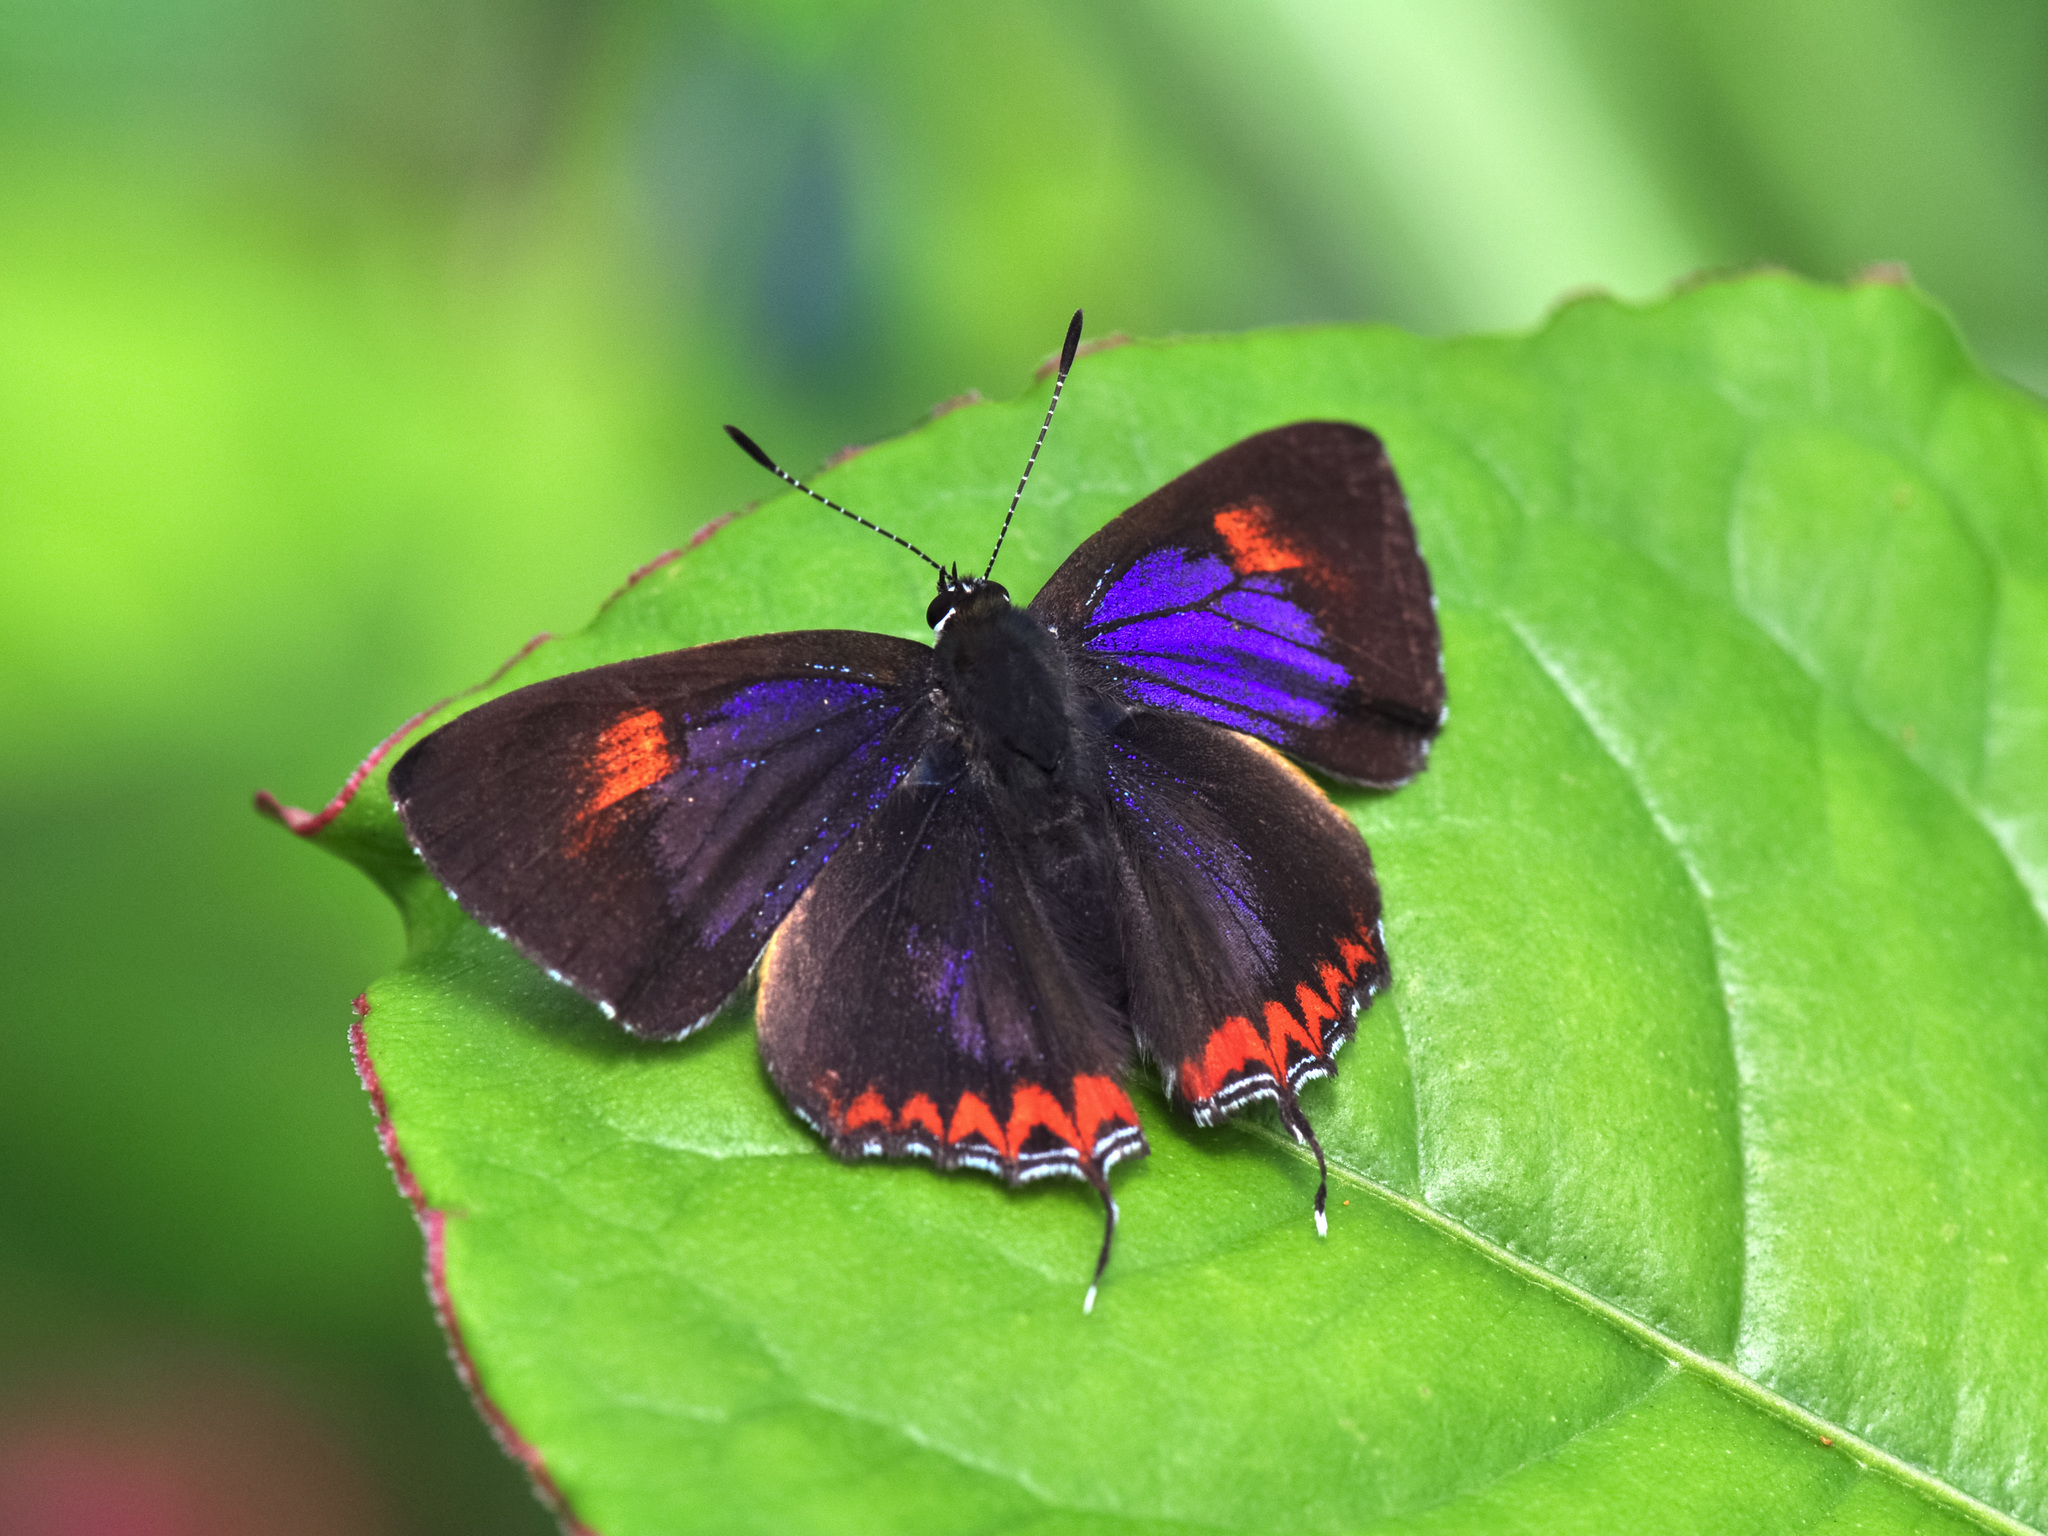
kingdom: Animalia
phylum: Arthropoda
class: Insecta
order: Lepidoptera
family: Lycaenidae
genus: Heliophorus
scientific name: Heliophorus epicles
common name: Purple sapphire
